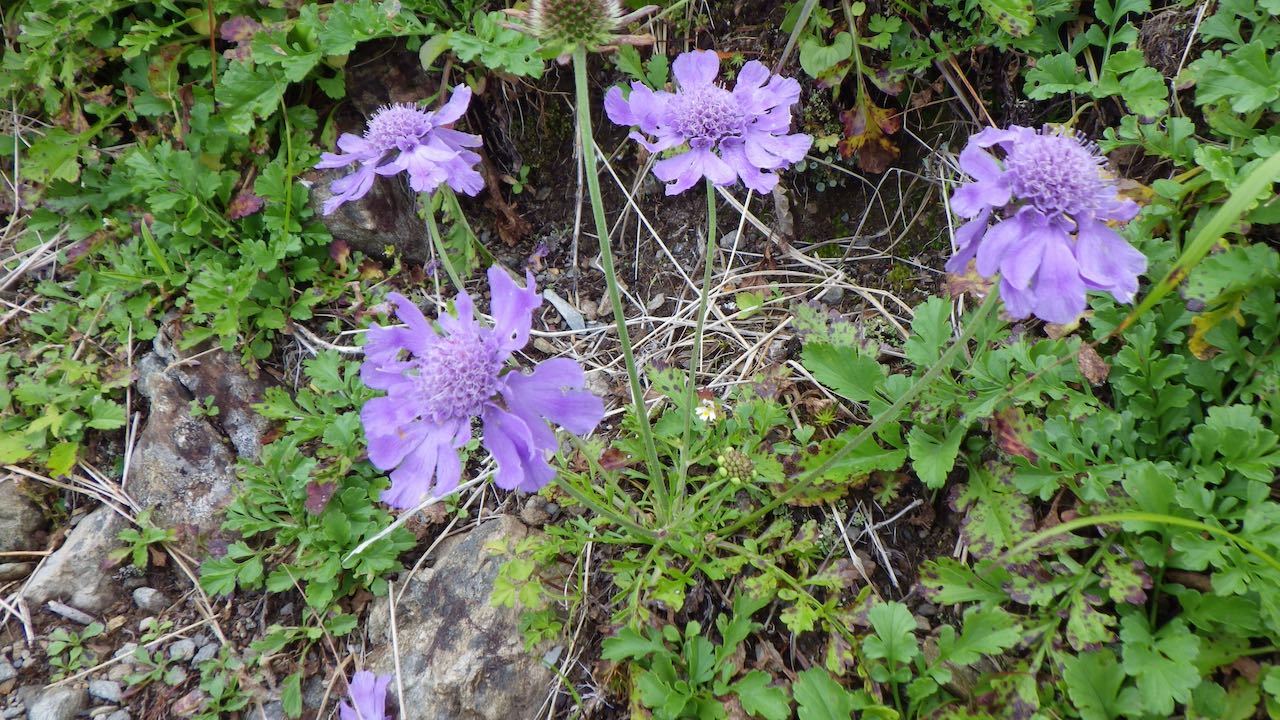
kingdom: Plantae
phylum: Tracheophyta
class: Magnoliopsida
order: Dipsacales
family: Caprifoliaceae
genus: Scabiosa
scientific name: Scabiosa japonica
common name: Pincushion-flower
